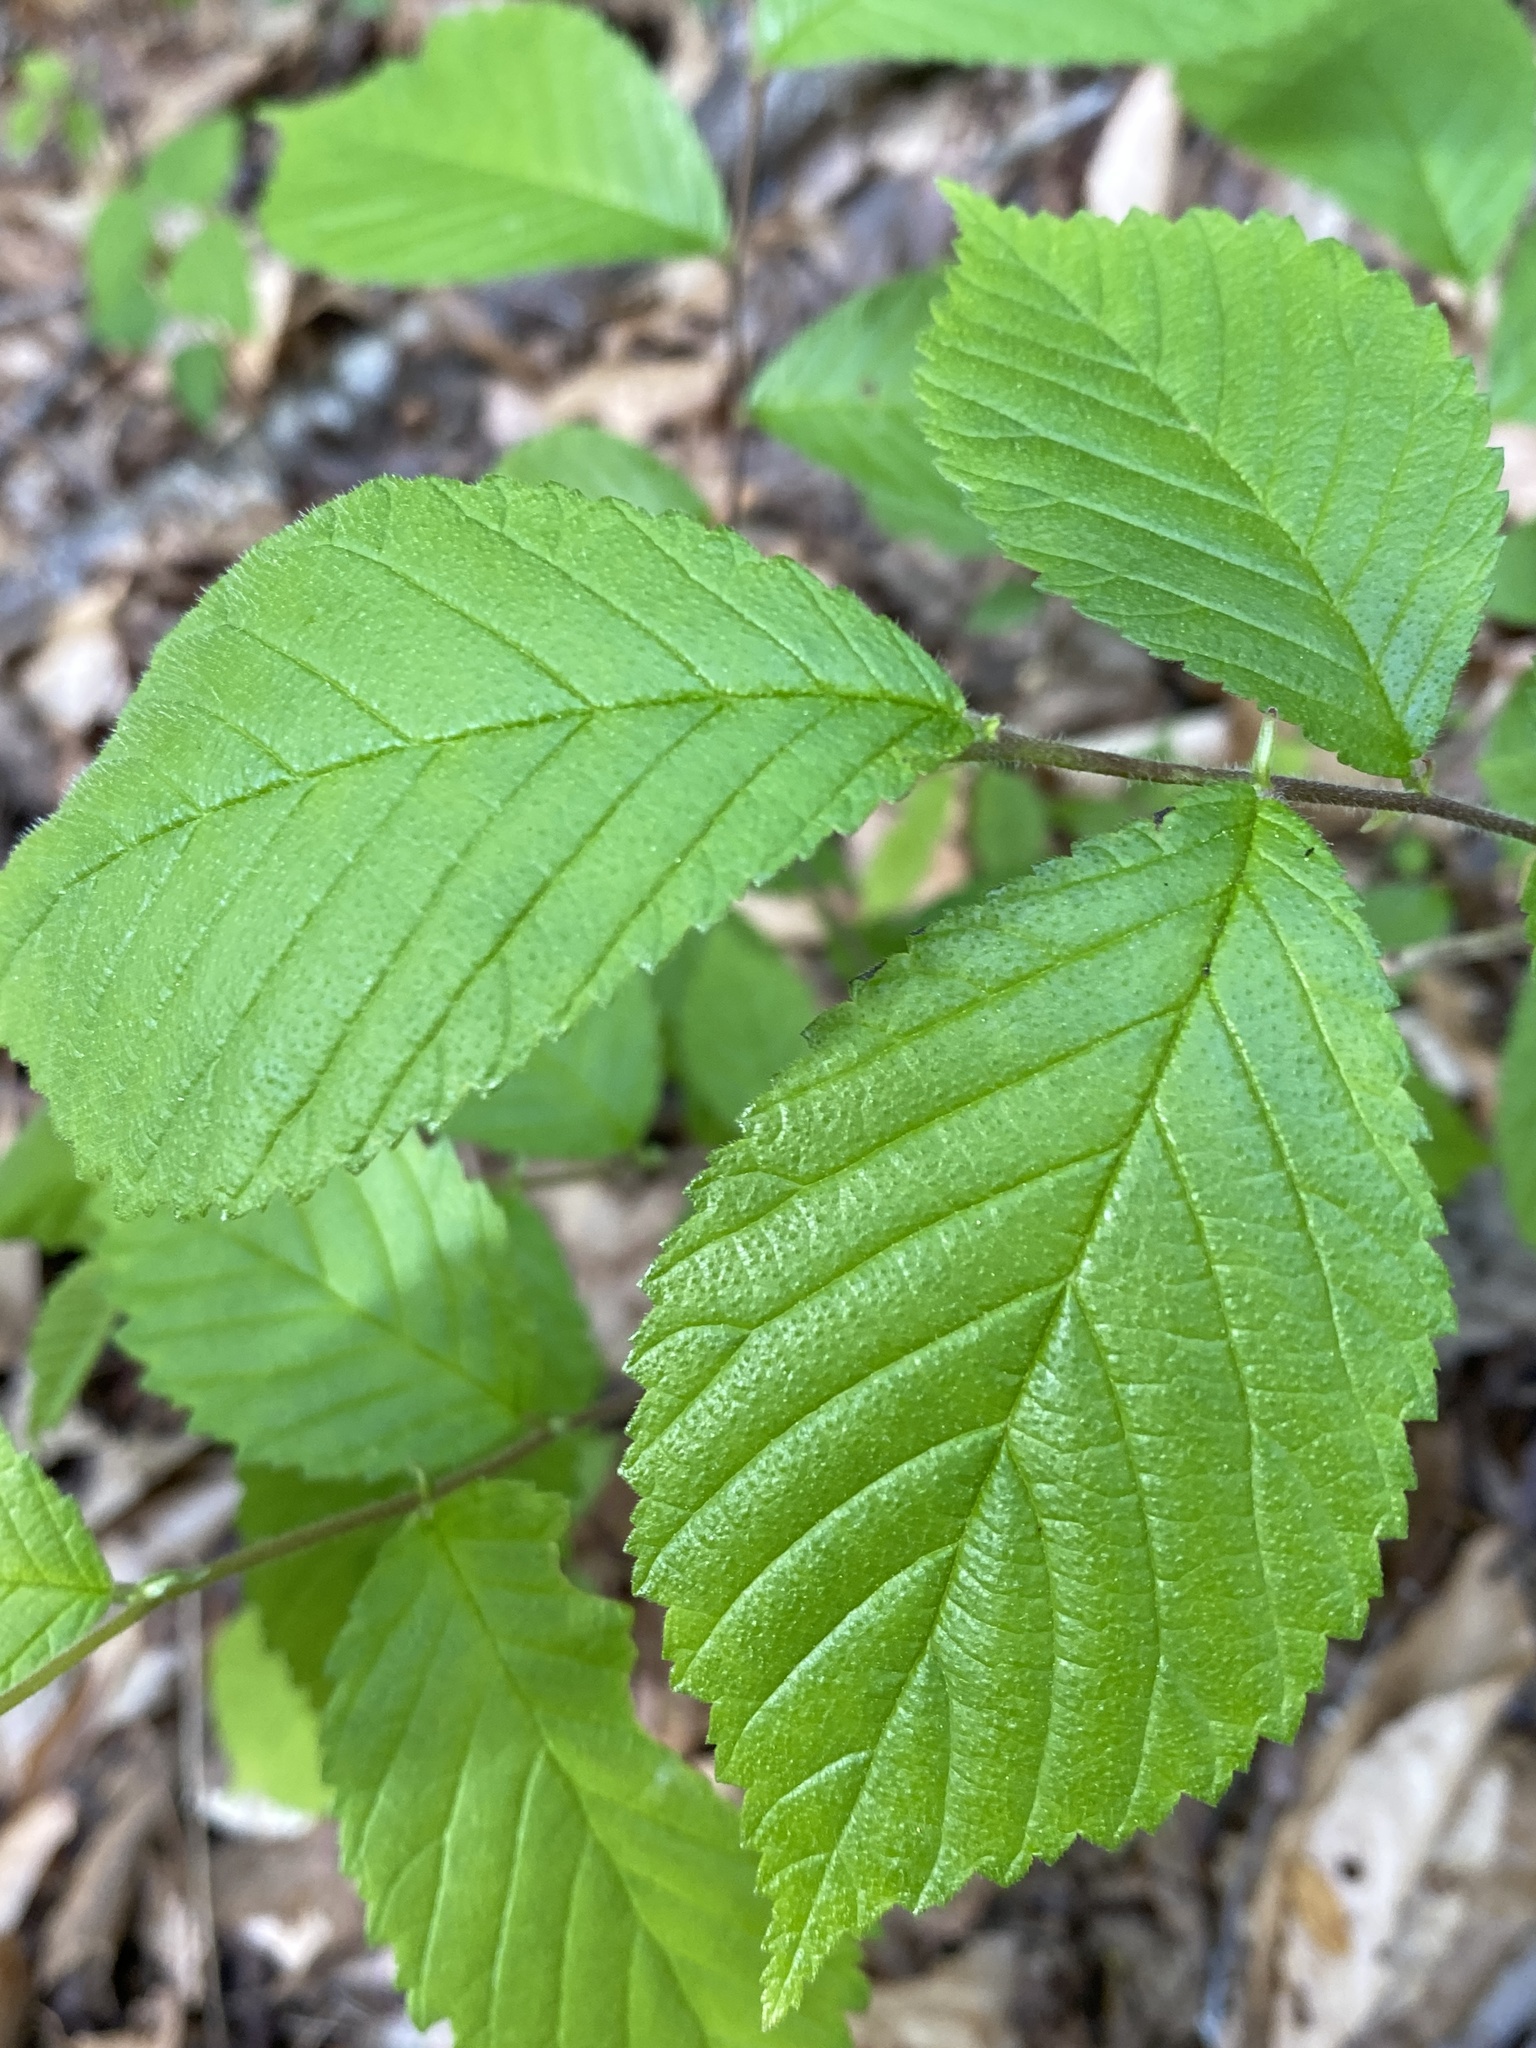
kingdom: Plantae
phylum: Tracheophyta
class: Magnoliopsida
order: Rosales
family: Ulmaceae
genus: Ulmus
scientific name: Ulmus americana
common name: American elm
